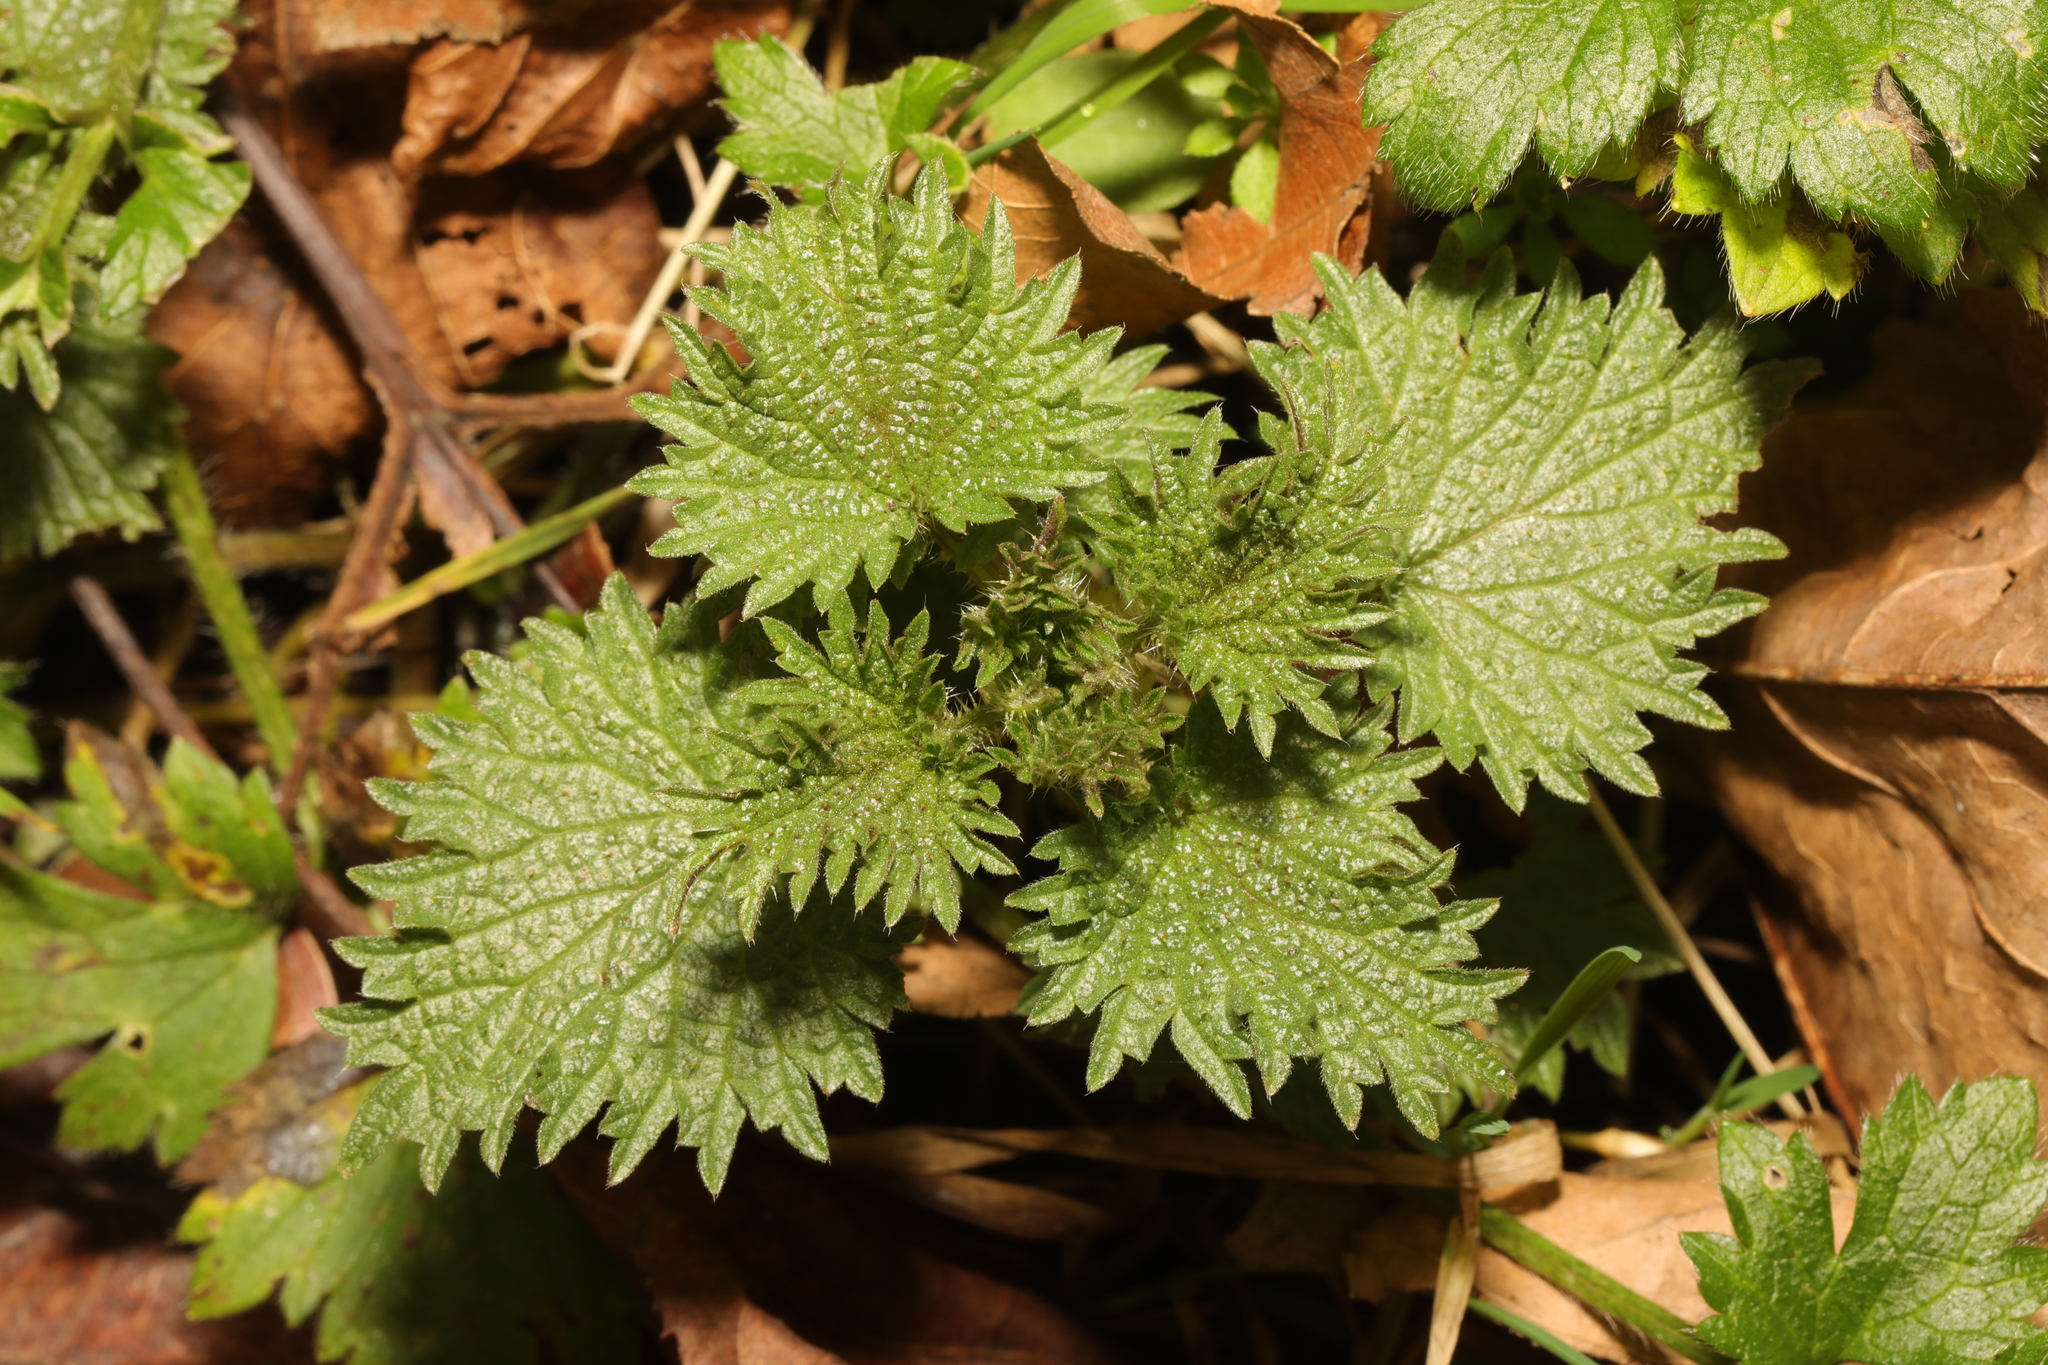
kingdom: Plantae
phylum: Tracheophyta
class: Magnoliopsida
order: Rosales
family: Urticaceae
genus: Urtica
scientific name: Urtica dioica
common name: Common nettle
